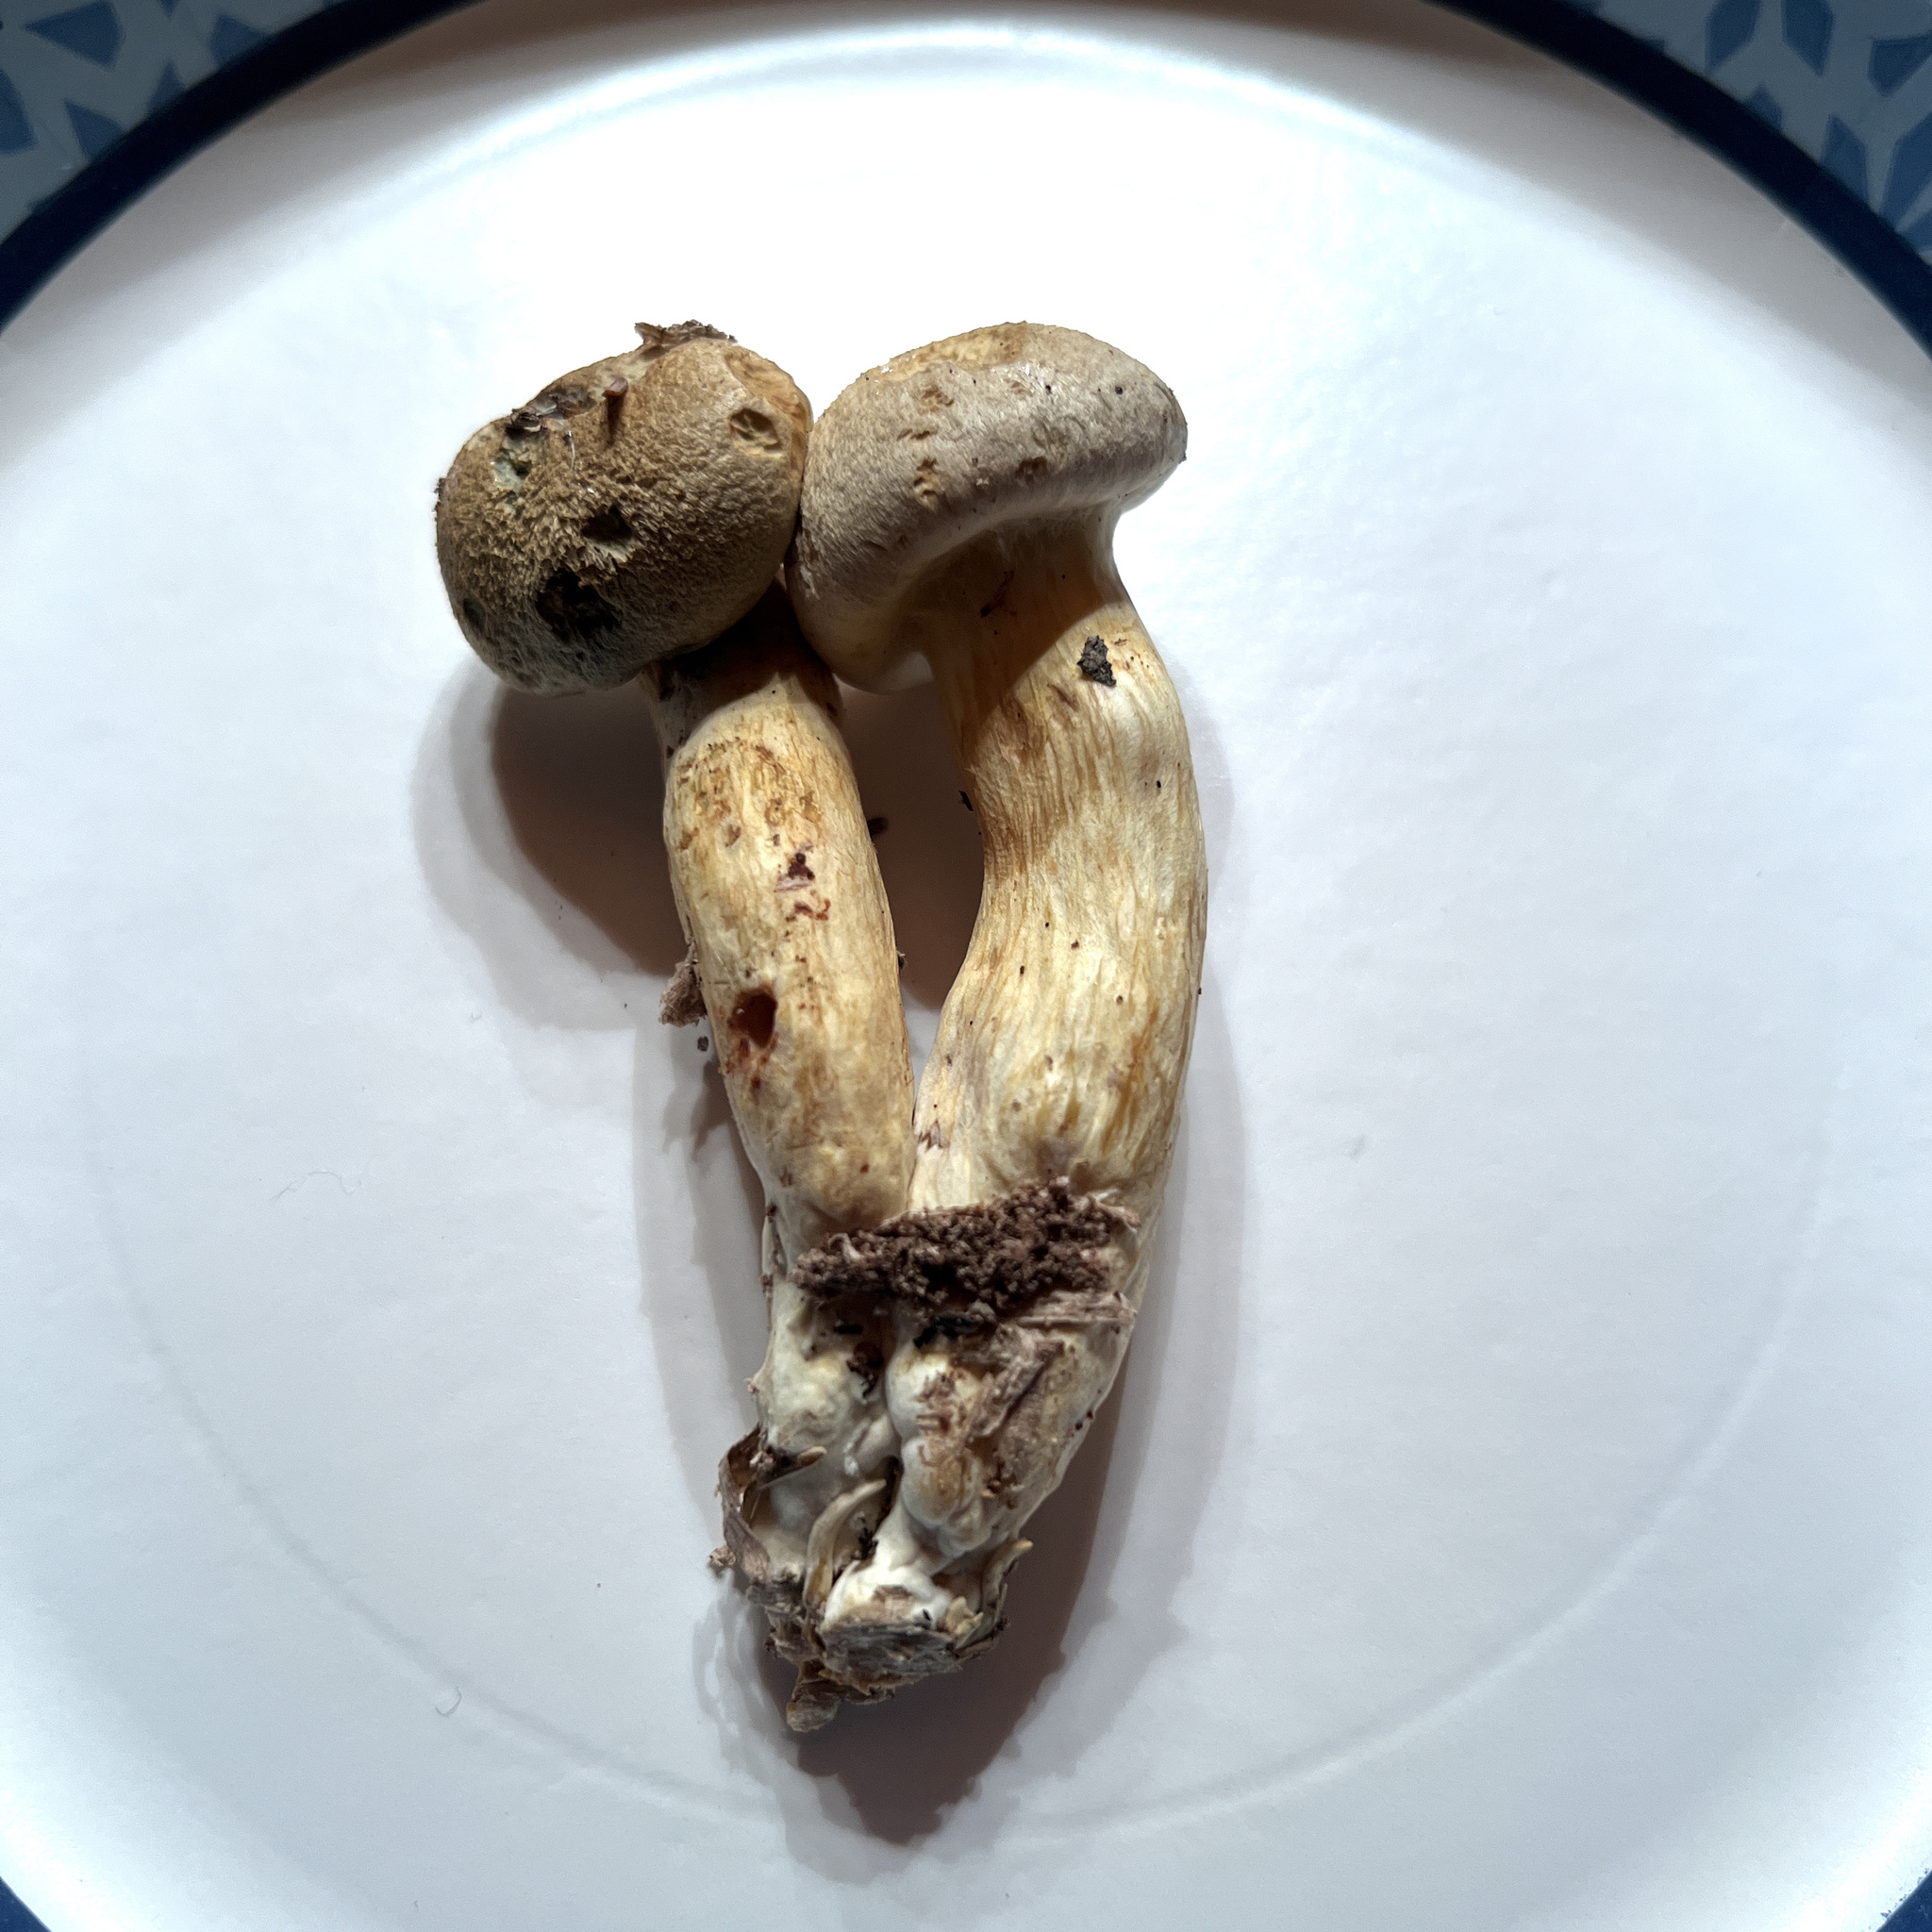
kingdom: Fungi
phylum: Basidiomycota
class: Agaricomycetes
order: Agaricales
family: Hymenogastraceae
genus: Gymnopilus
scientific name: Gymnopilus luteus
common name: Yellow gymnopilus
